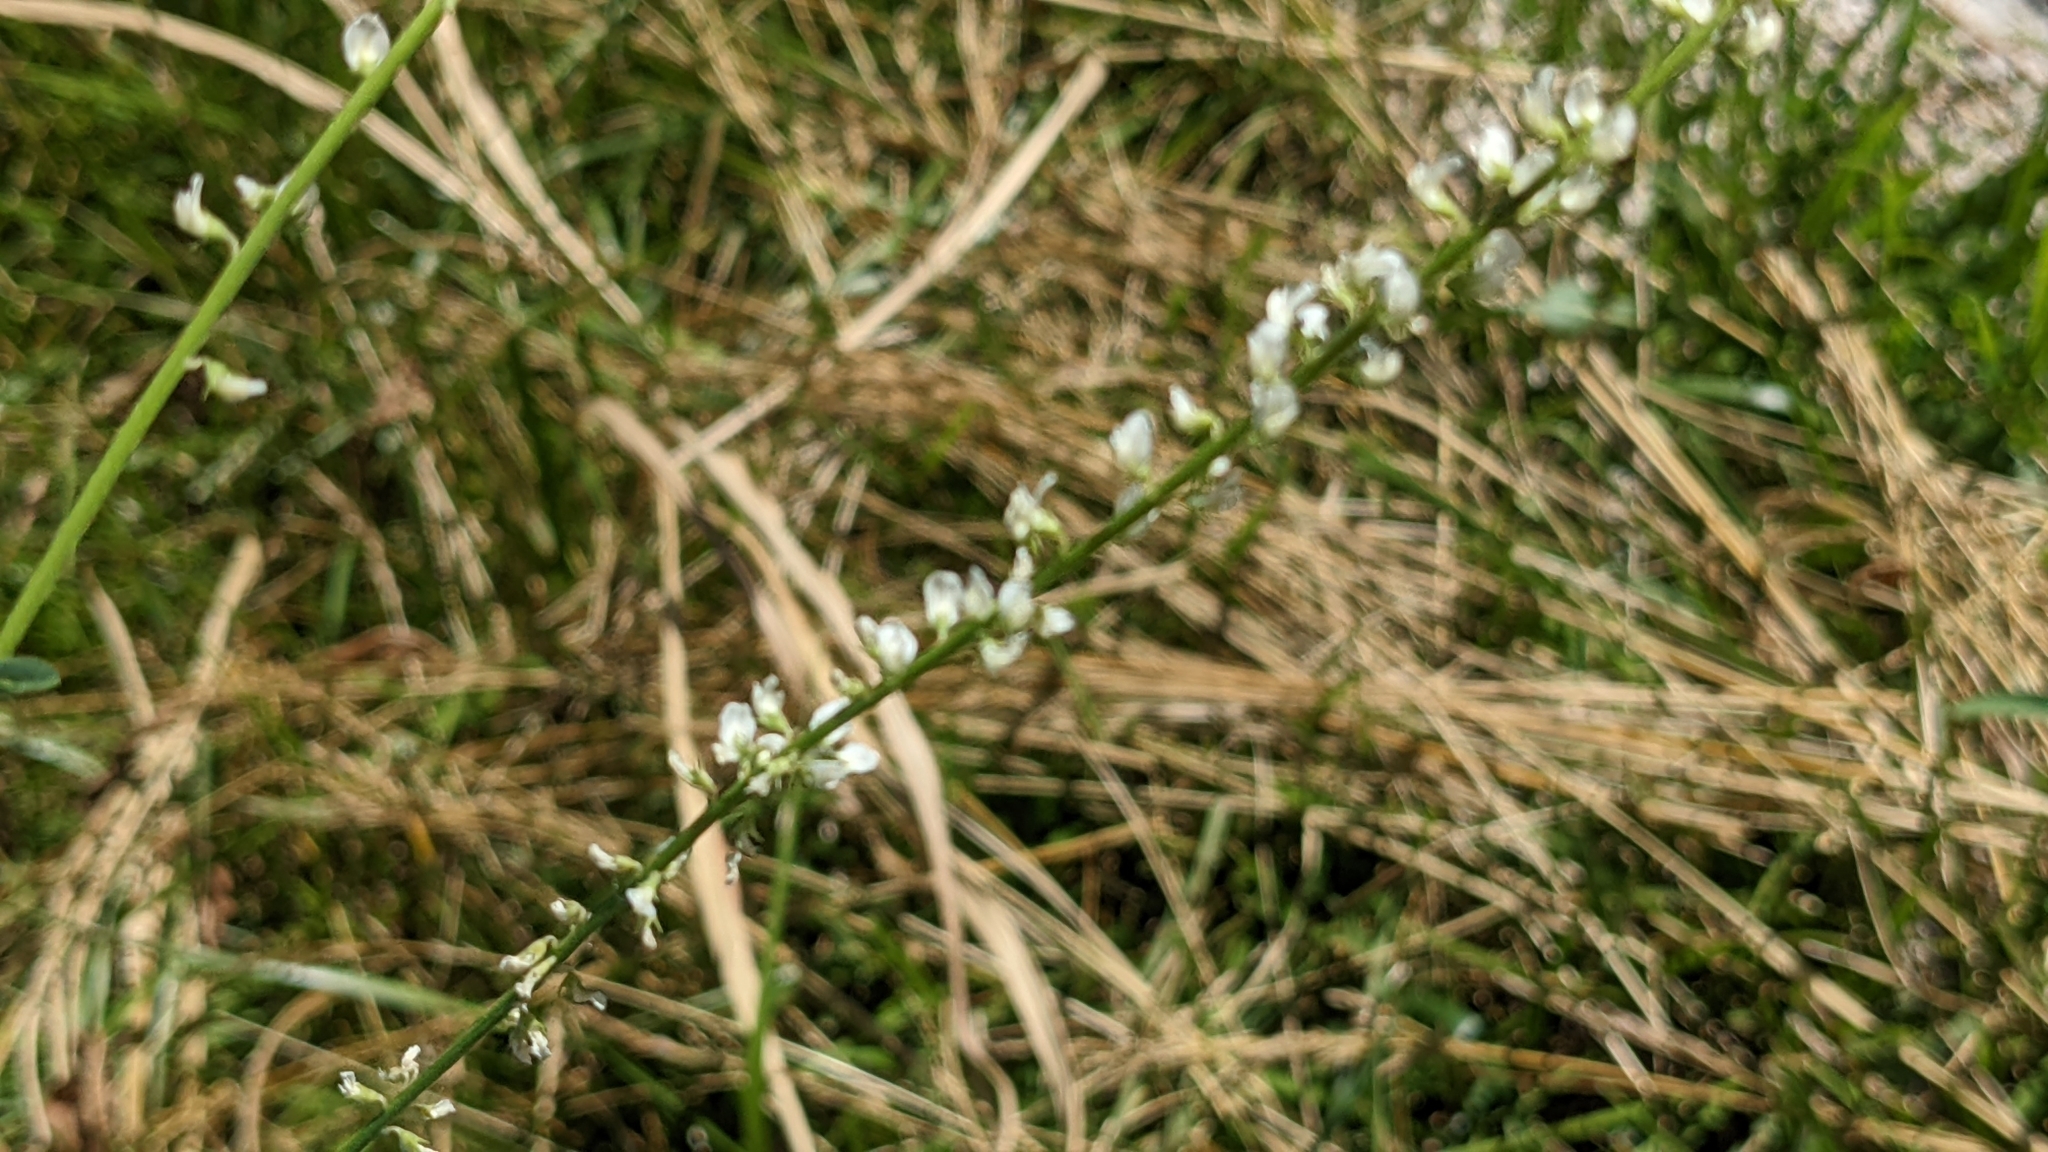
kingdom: Plantae
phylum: Tracheophyta
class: Magnoliopsida
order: Fabales
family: Fabaceae
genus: Melilotus
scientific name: Melilotus albus
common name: White melilot
